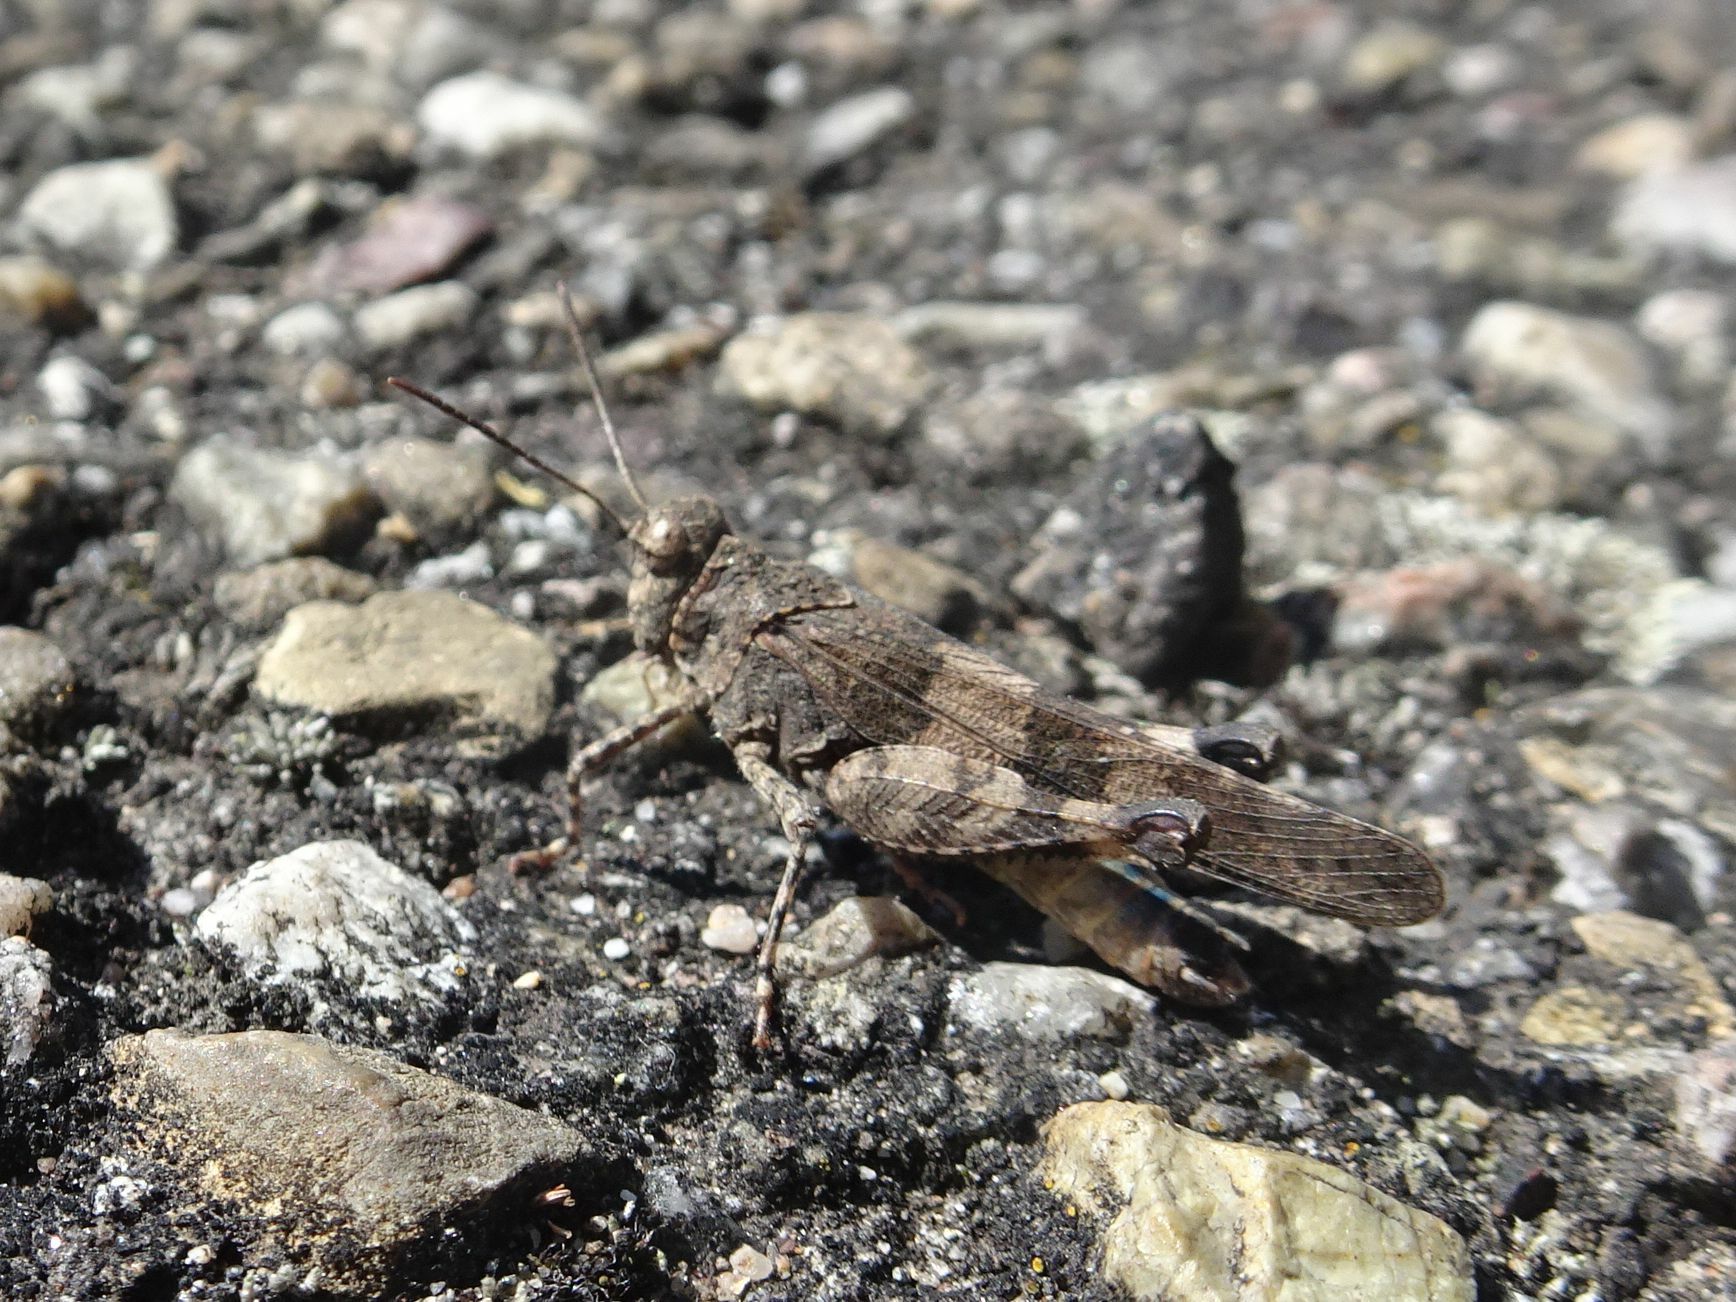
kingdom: Animalia
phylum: Arthropoda
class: Insecta
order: Orthoptera
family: Acrididae
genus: Oedipoda
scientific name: Oedipoda caerulescens
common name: Blue-winged grasshopper
